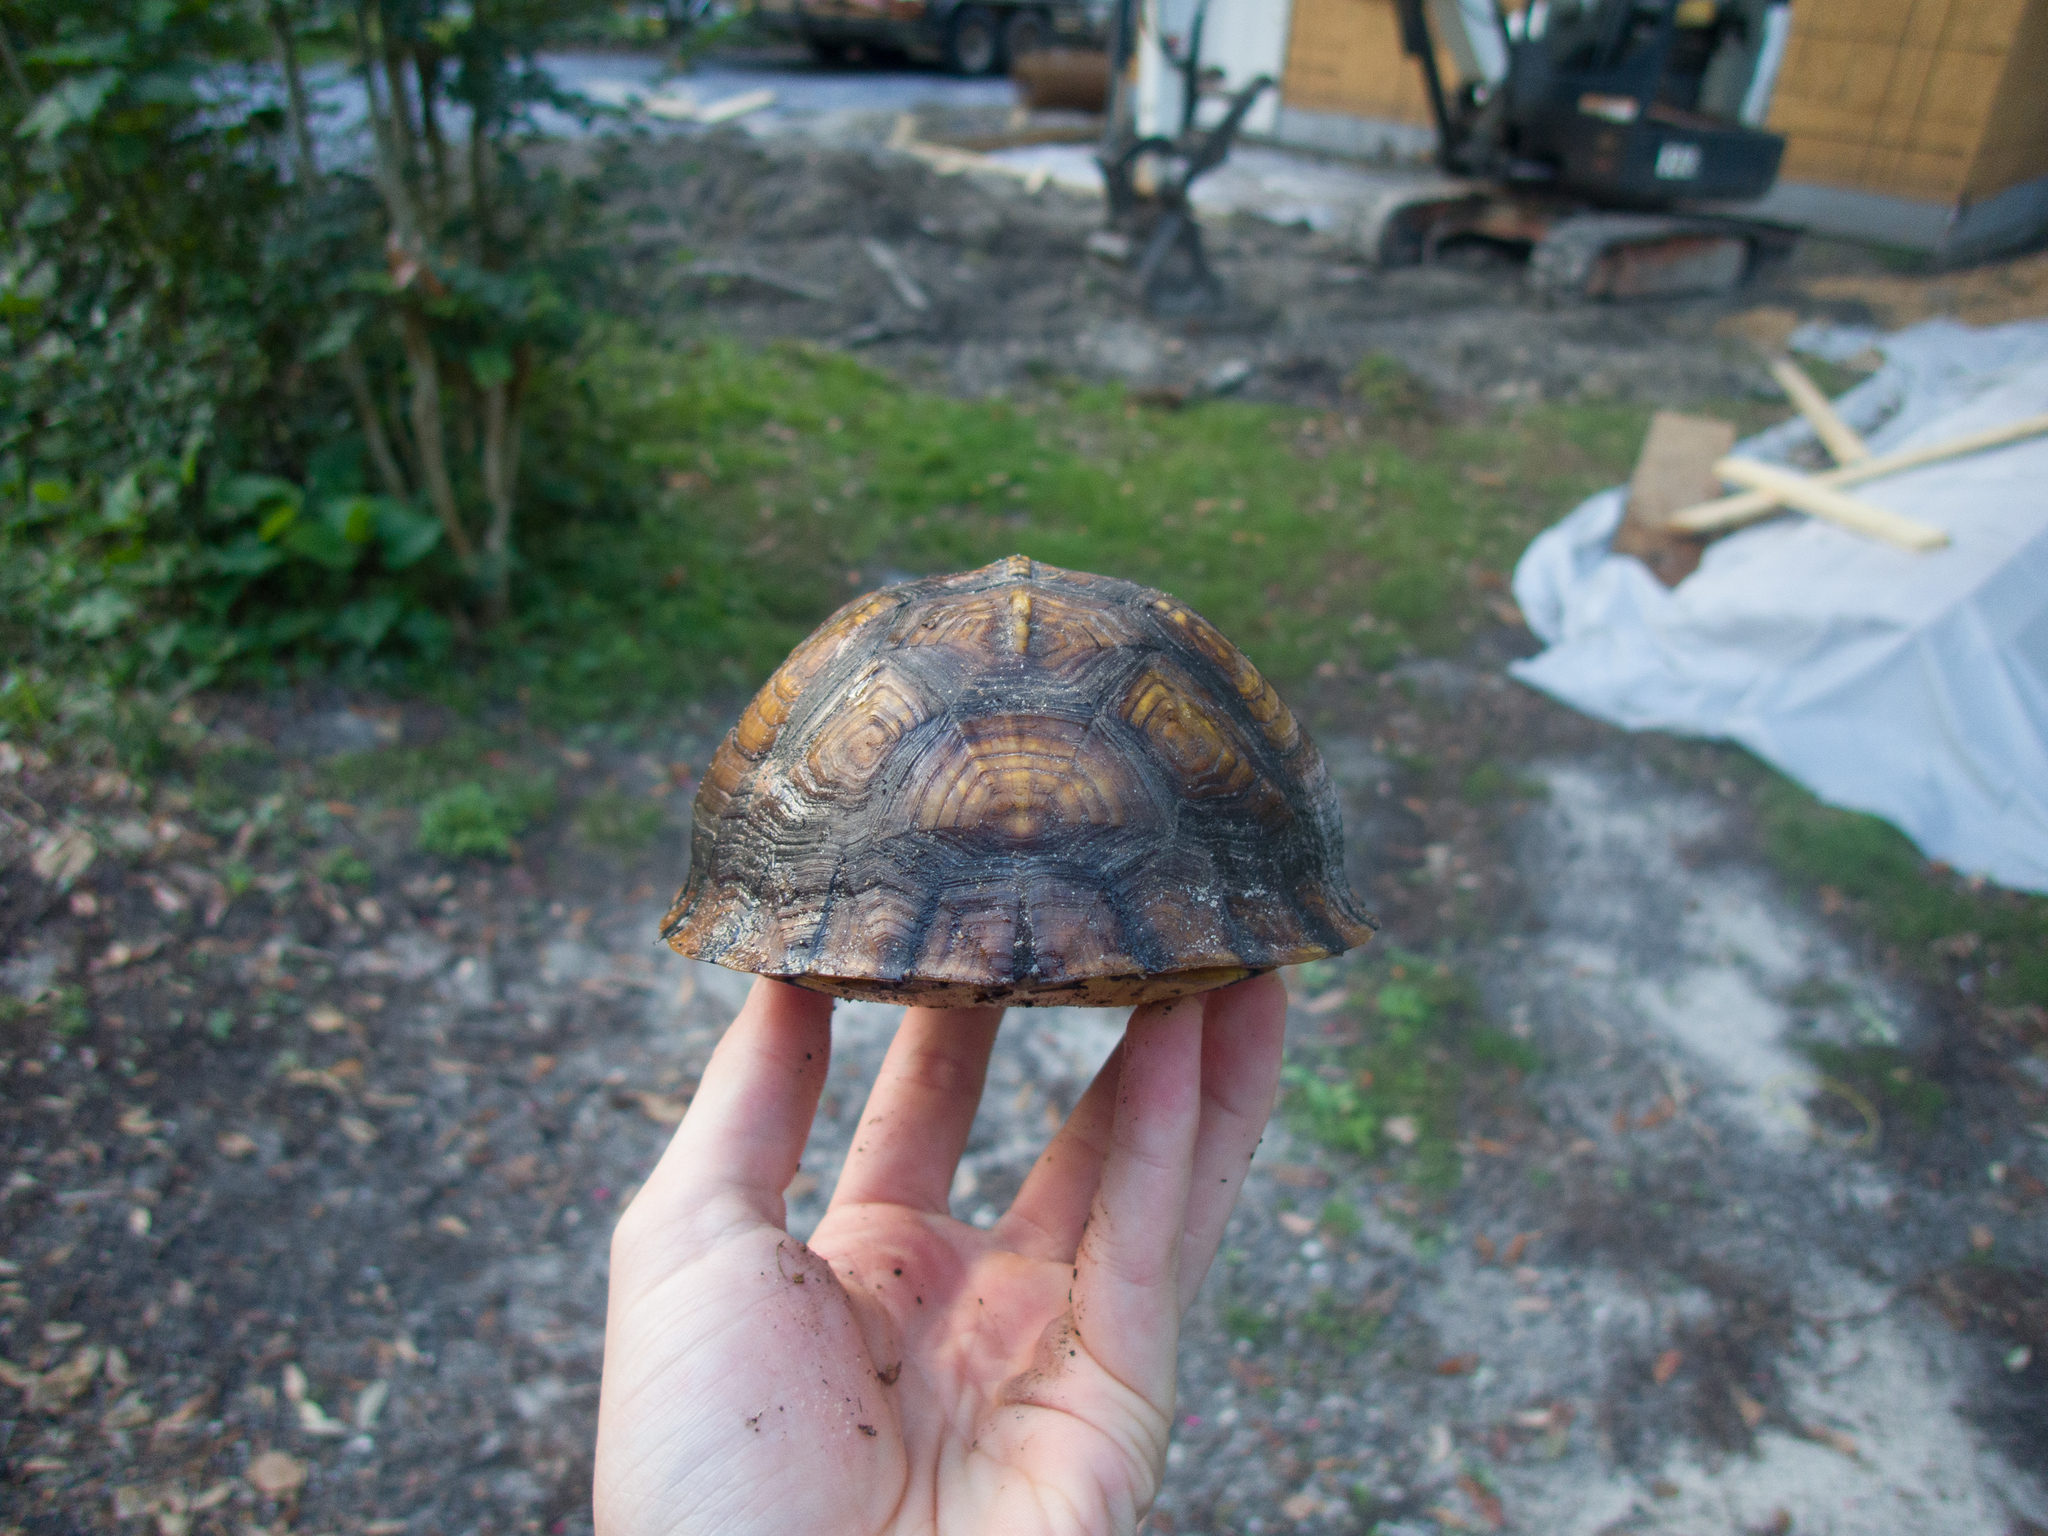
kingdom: Animalia
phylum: Chordata
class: Testudines
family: Emydidae
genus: Terrapene
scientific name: Terrapene carolina
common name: Common box turtle
